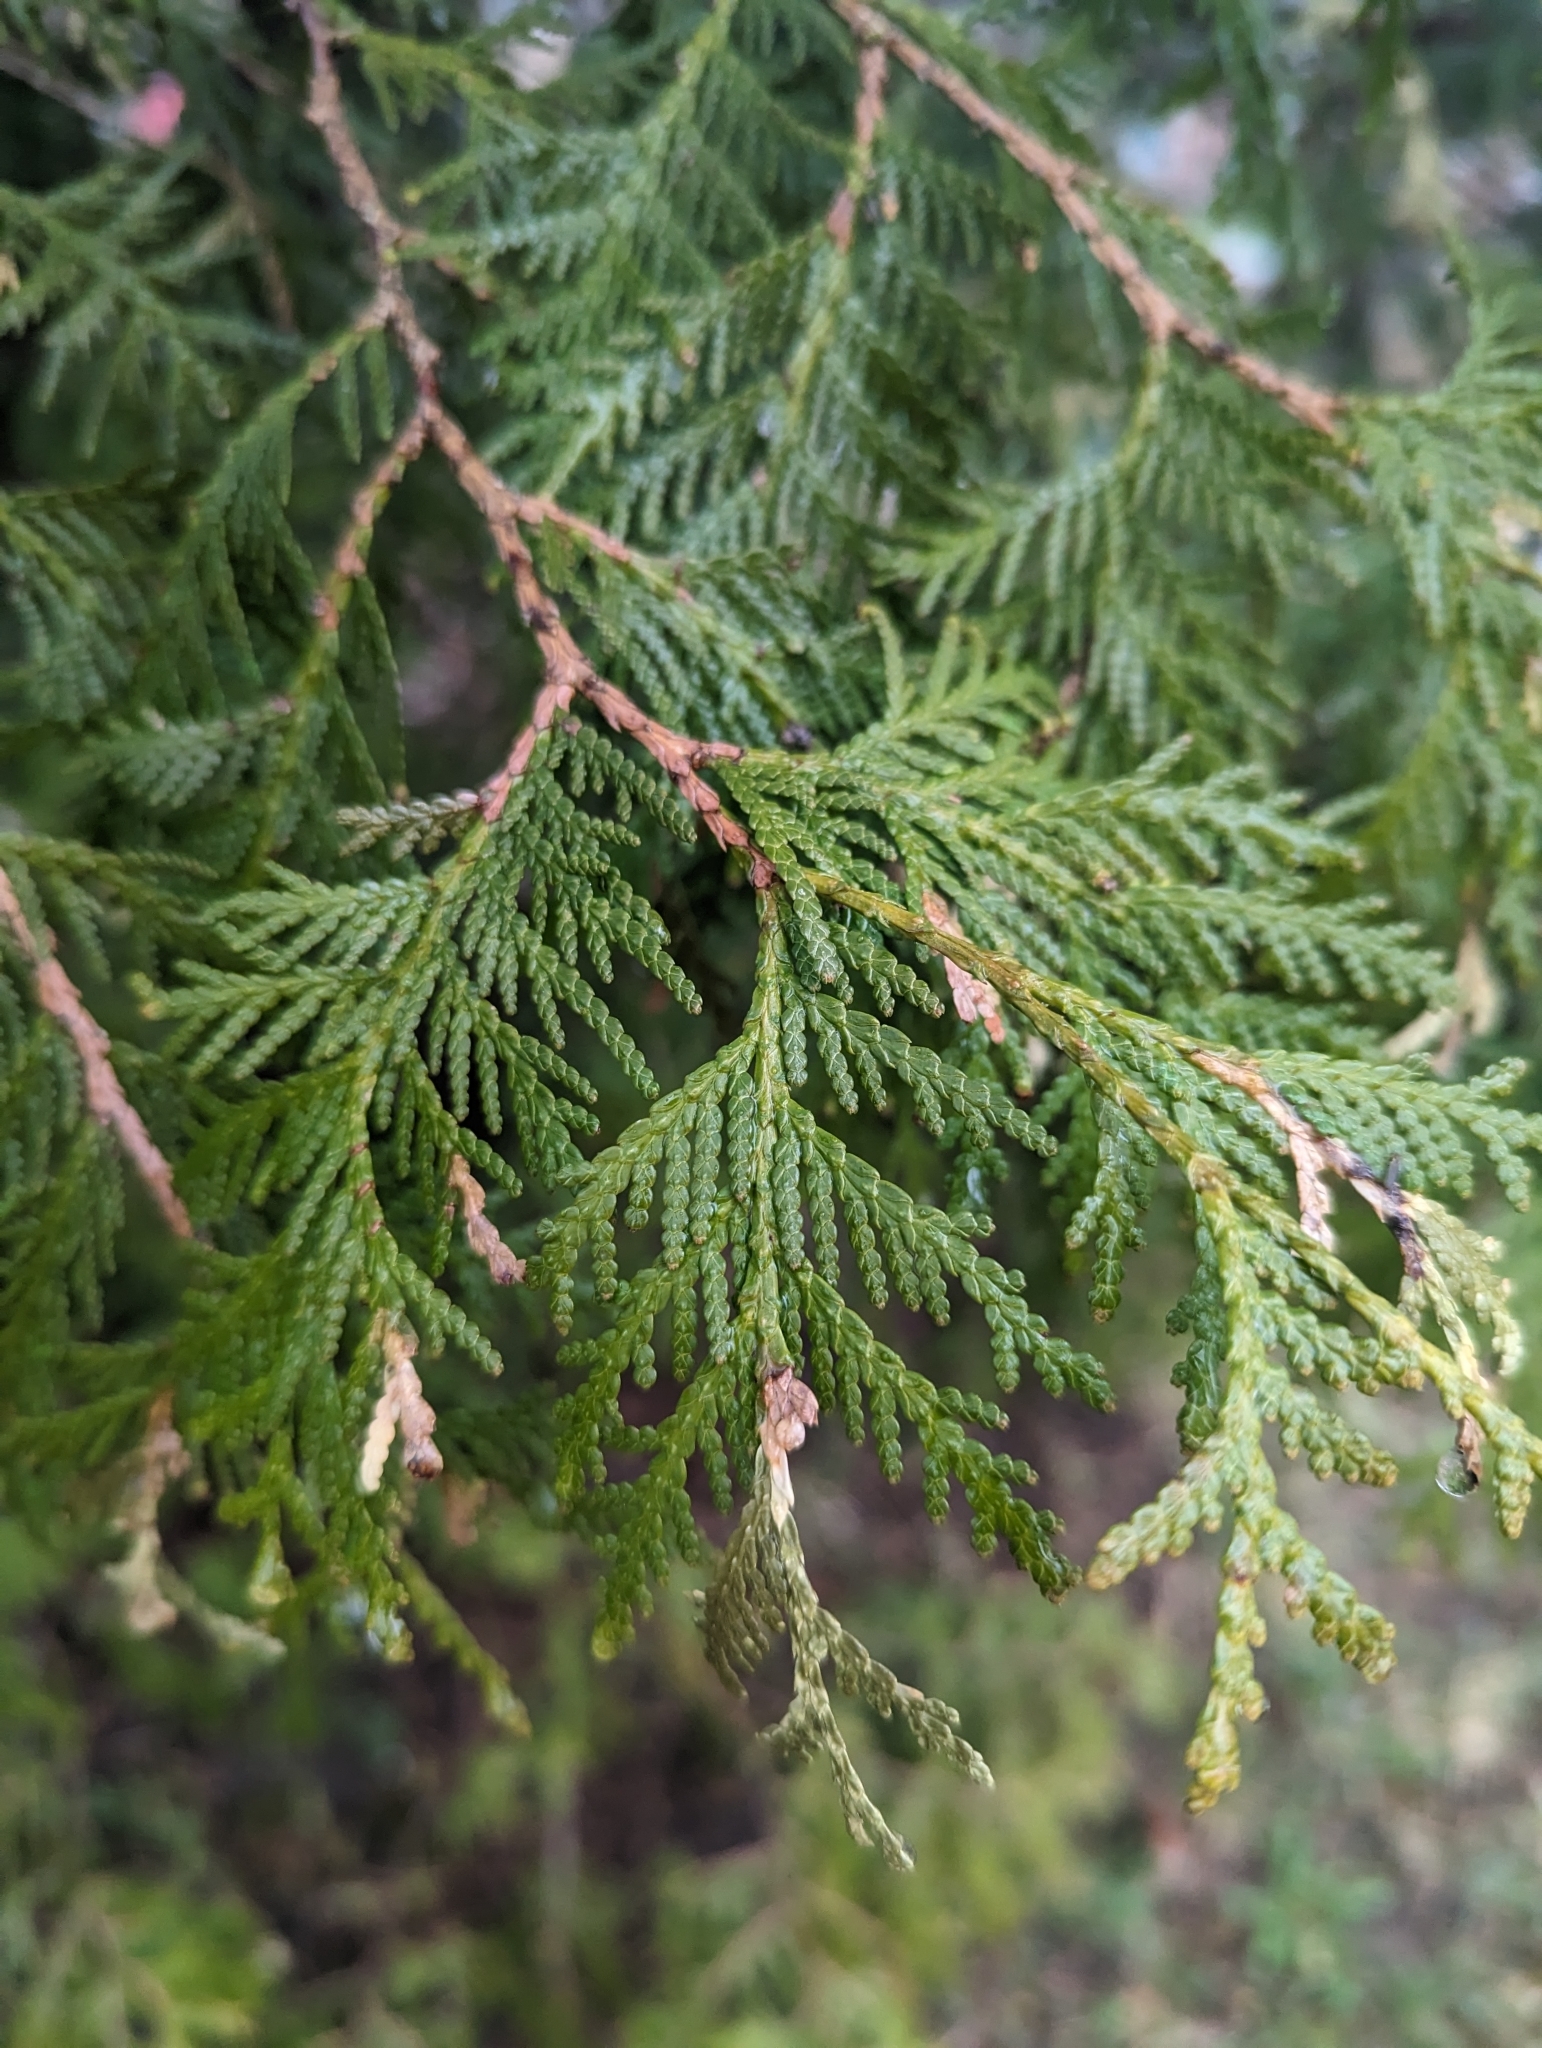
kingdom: Plantae
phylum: Tracheophyta
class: Pinopsida
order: Pinales
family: Cupressaceae
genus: Thuja
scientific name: Thuja occidentalis
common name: Northern white-cedar
